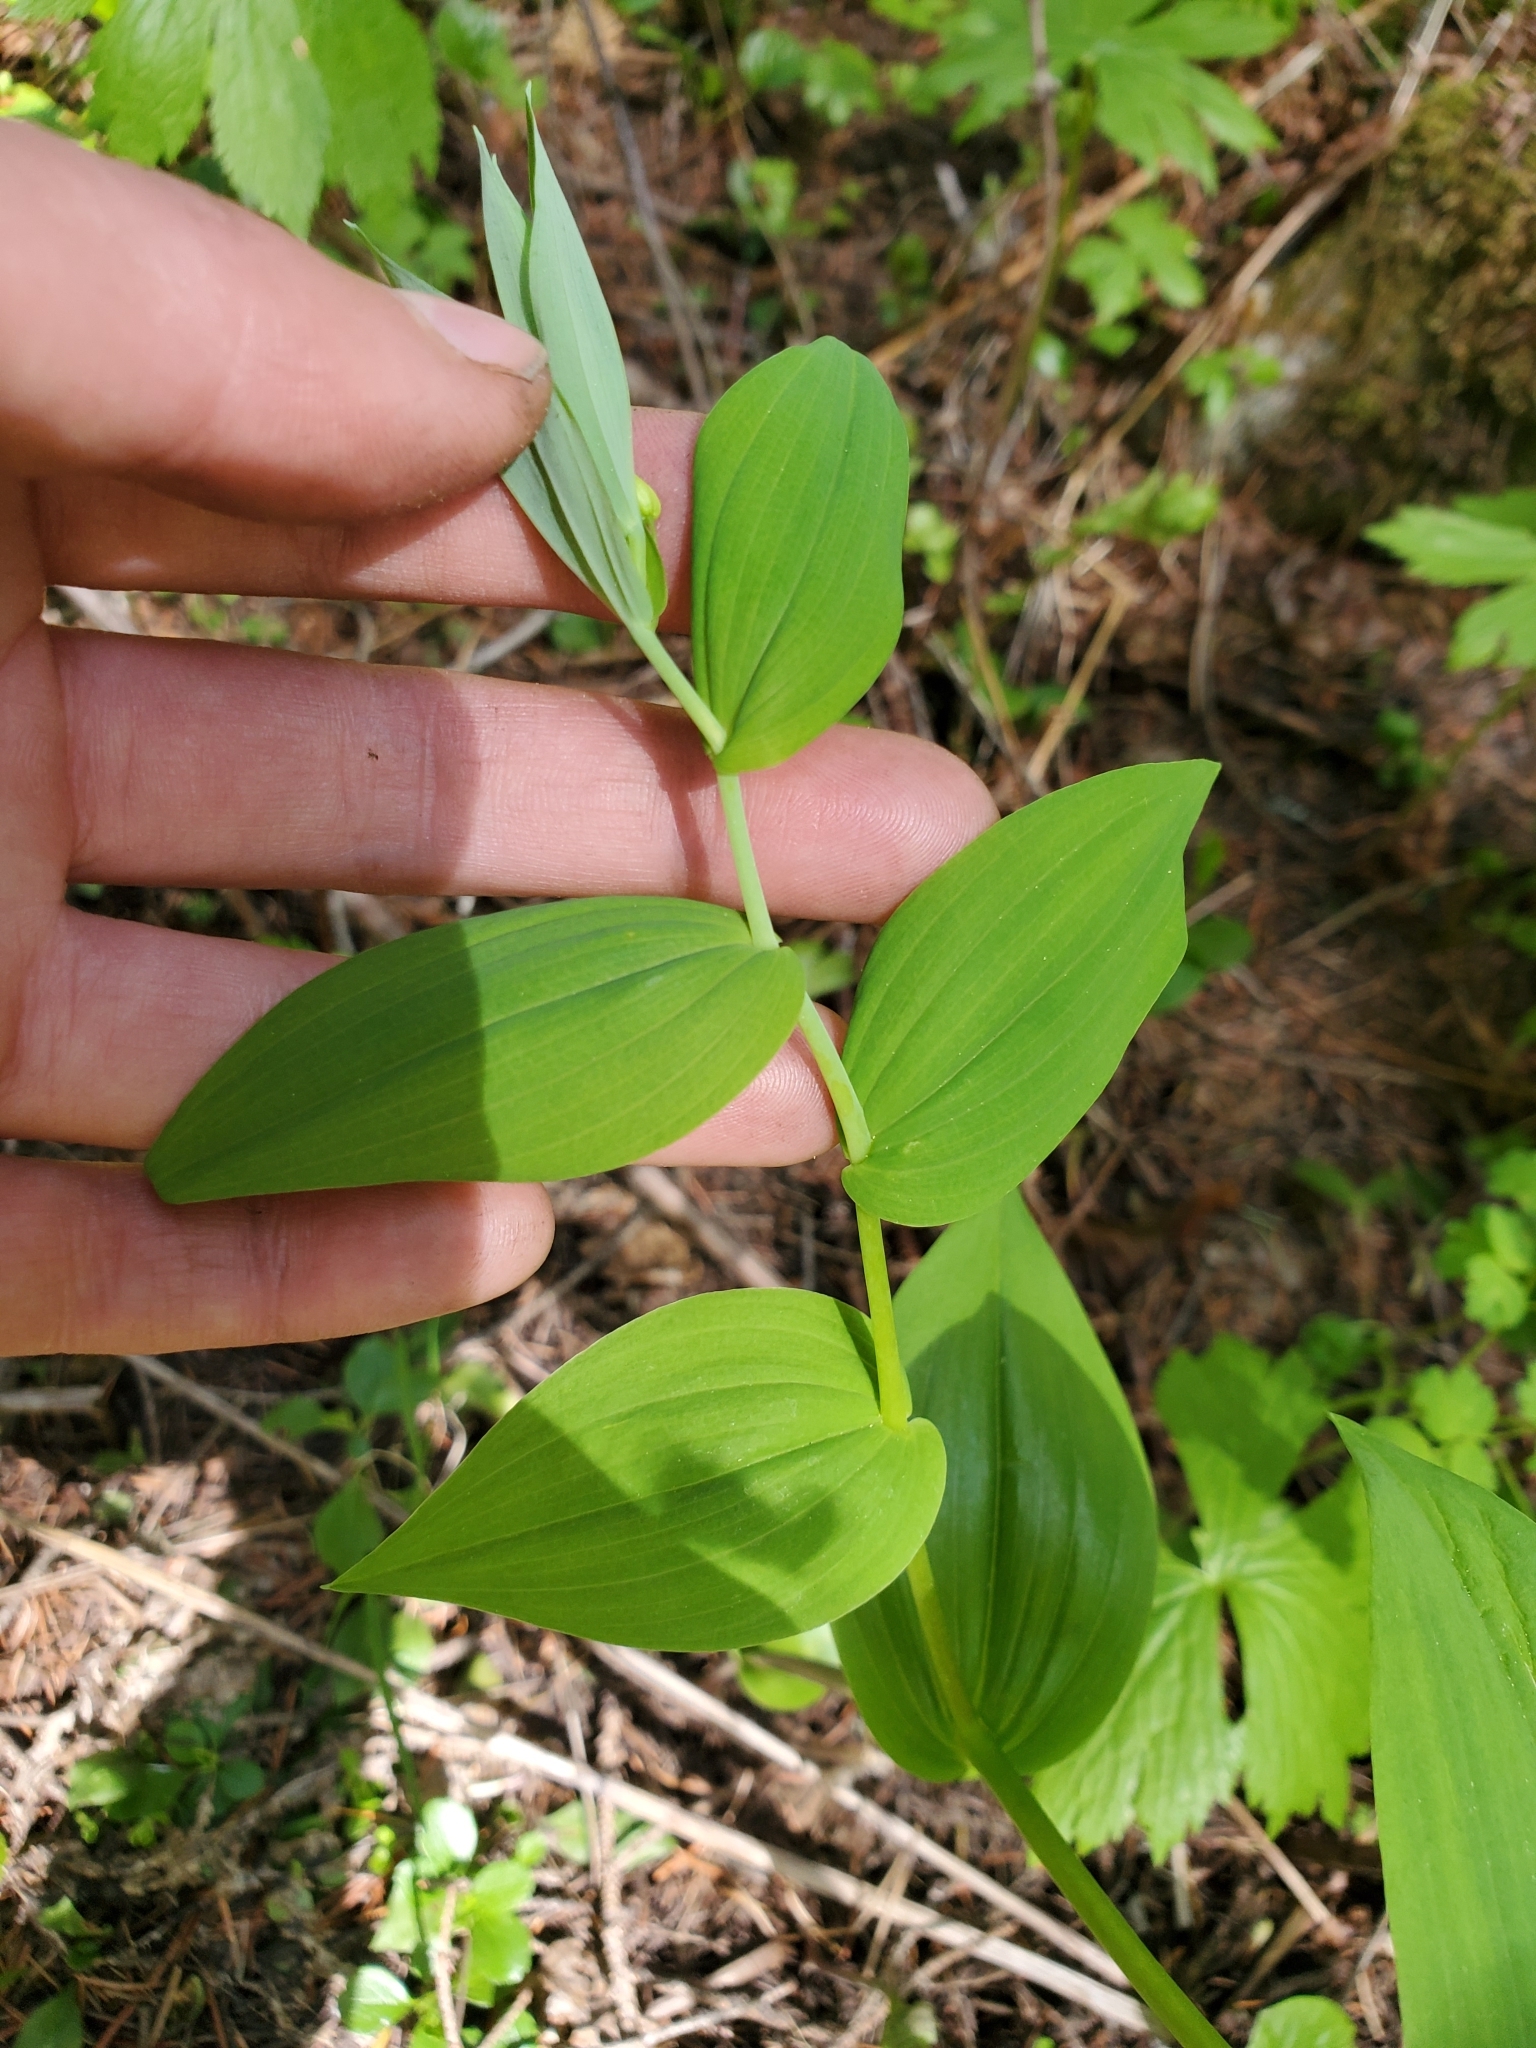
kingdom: Plantae
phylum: Tracheophyta
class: Liliopsida
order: Liliales
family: Liliaceae
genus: Streptopus
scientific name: Streptopus amplexifolius
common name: Clasp twisted stalk
